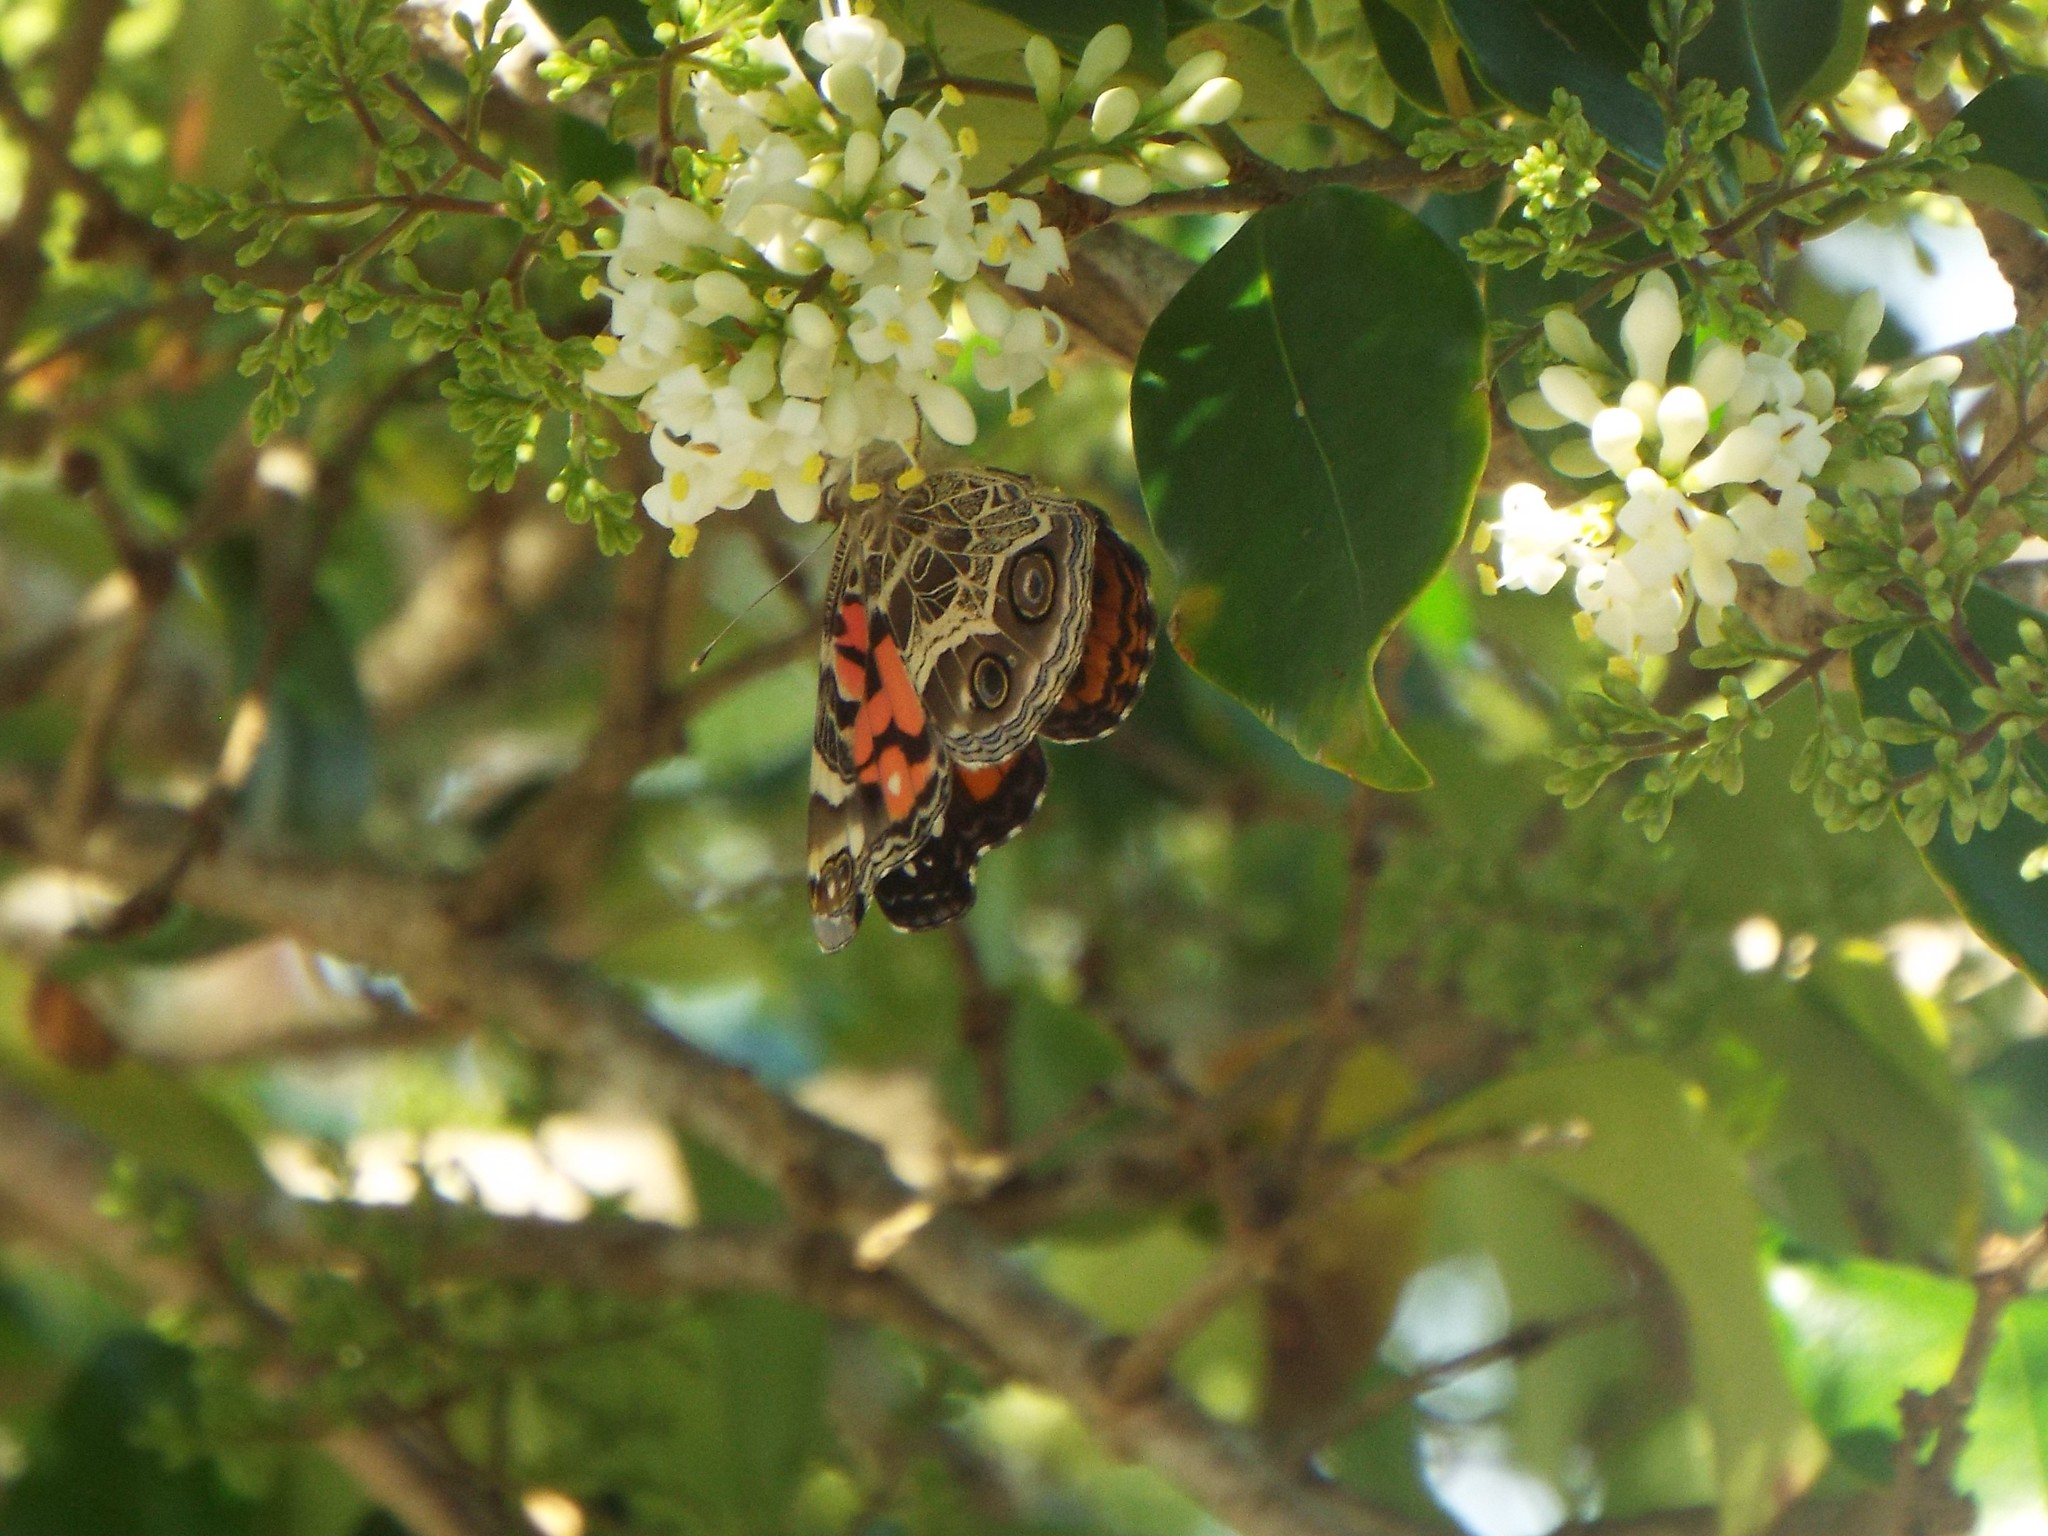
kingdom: Animalia
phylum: Arthropoda
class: Insecta
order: Lepidoptera
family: Nymphalidae
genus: Vanessa
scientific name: Vanessa virginiensis
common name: American lady
